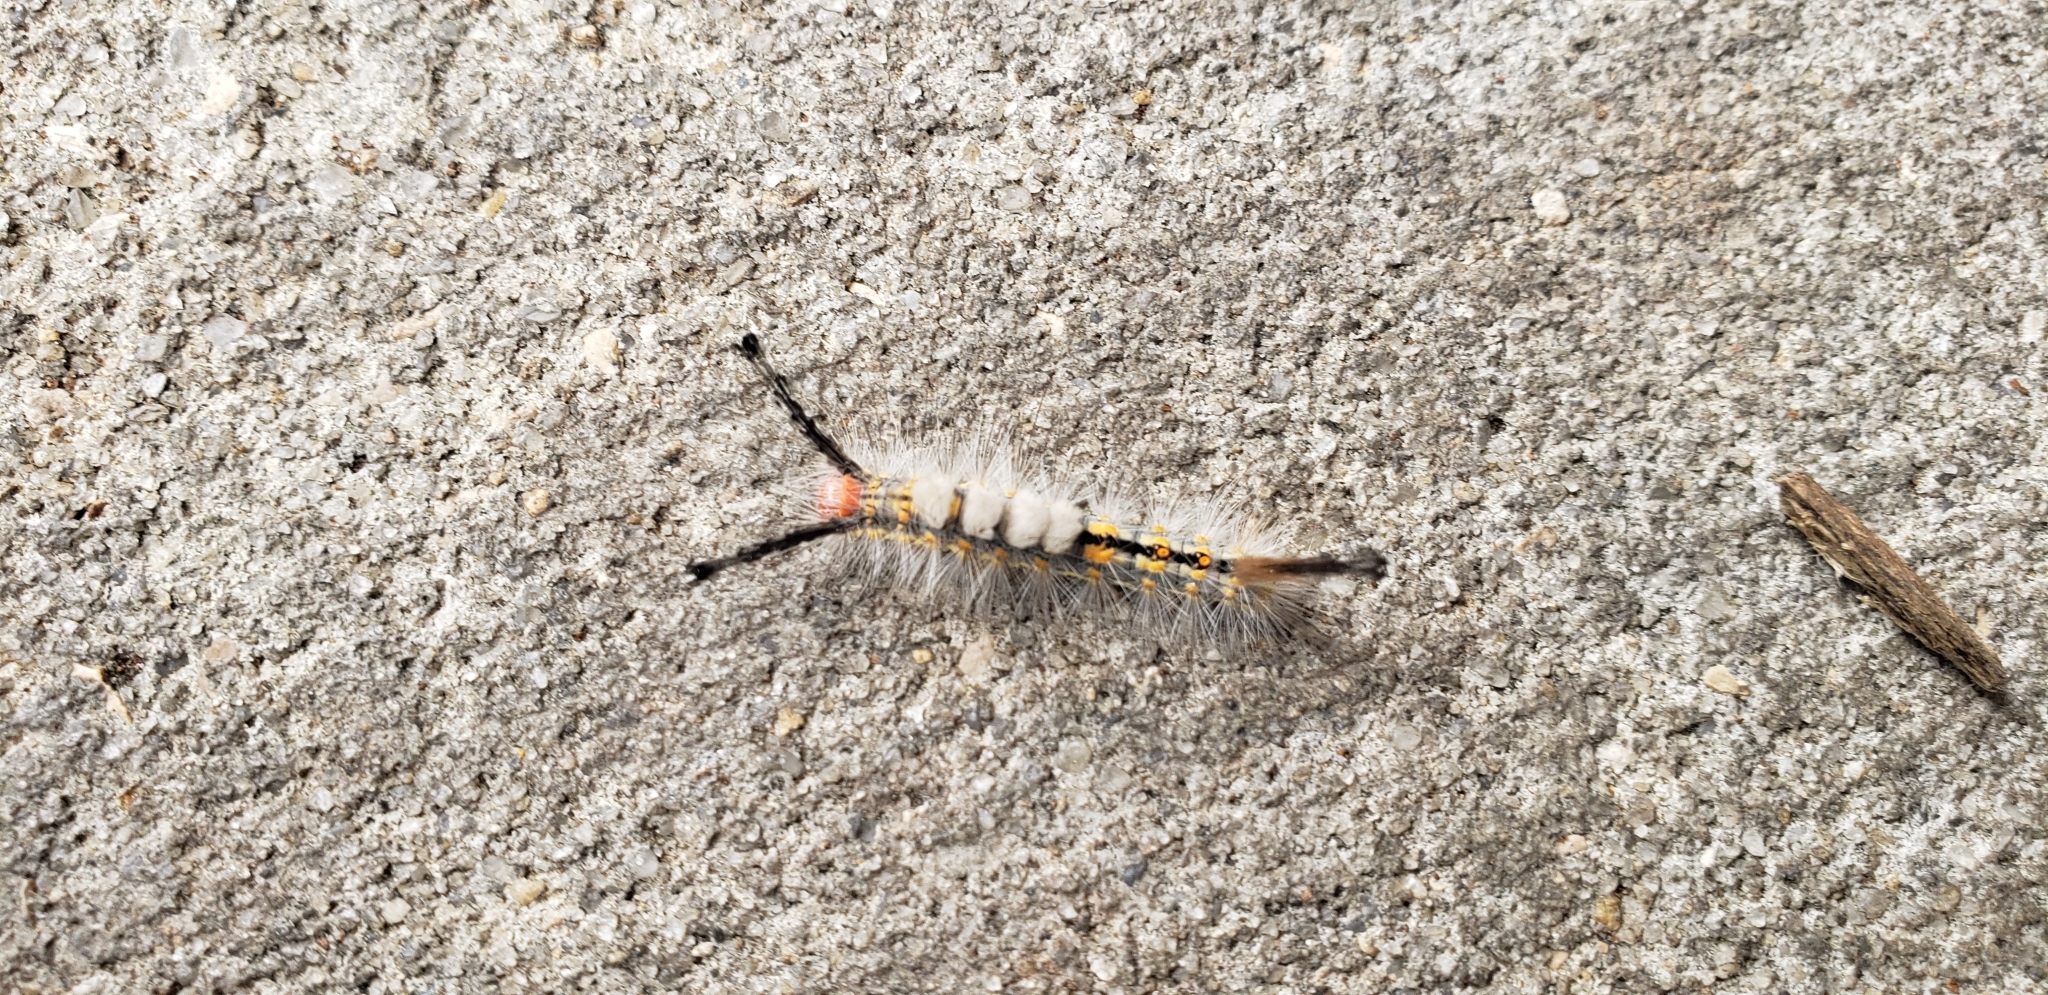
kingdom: Animalia
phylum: Arthropoda
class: Insecta
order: Lepidoptera
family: Erebidae
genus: Orgyia
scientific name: Orgyia detrita
